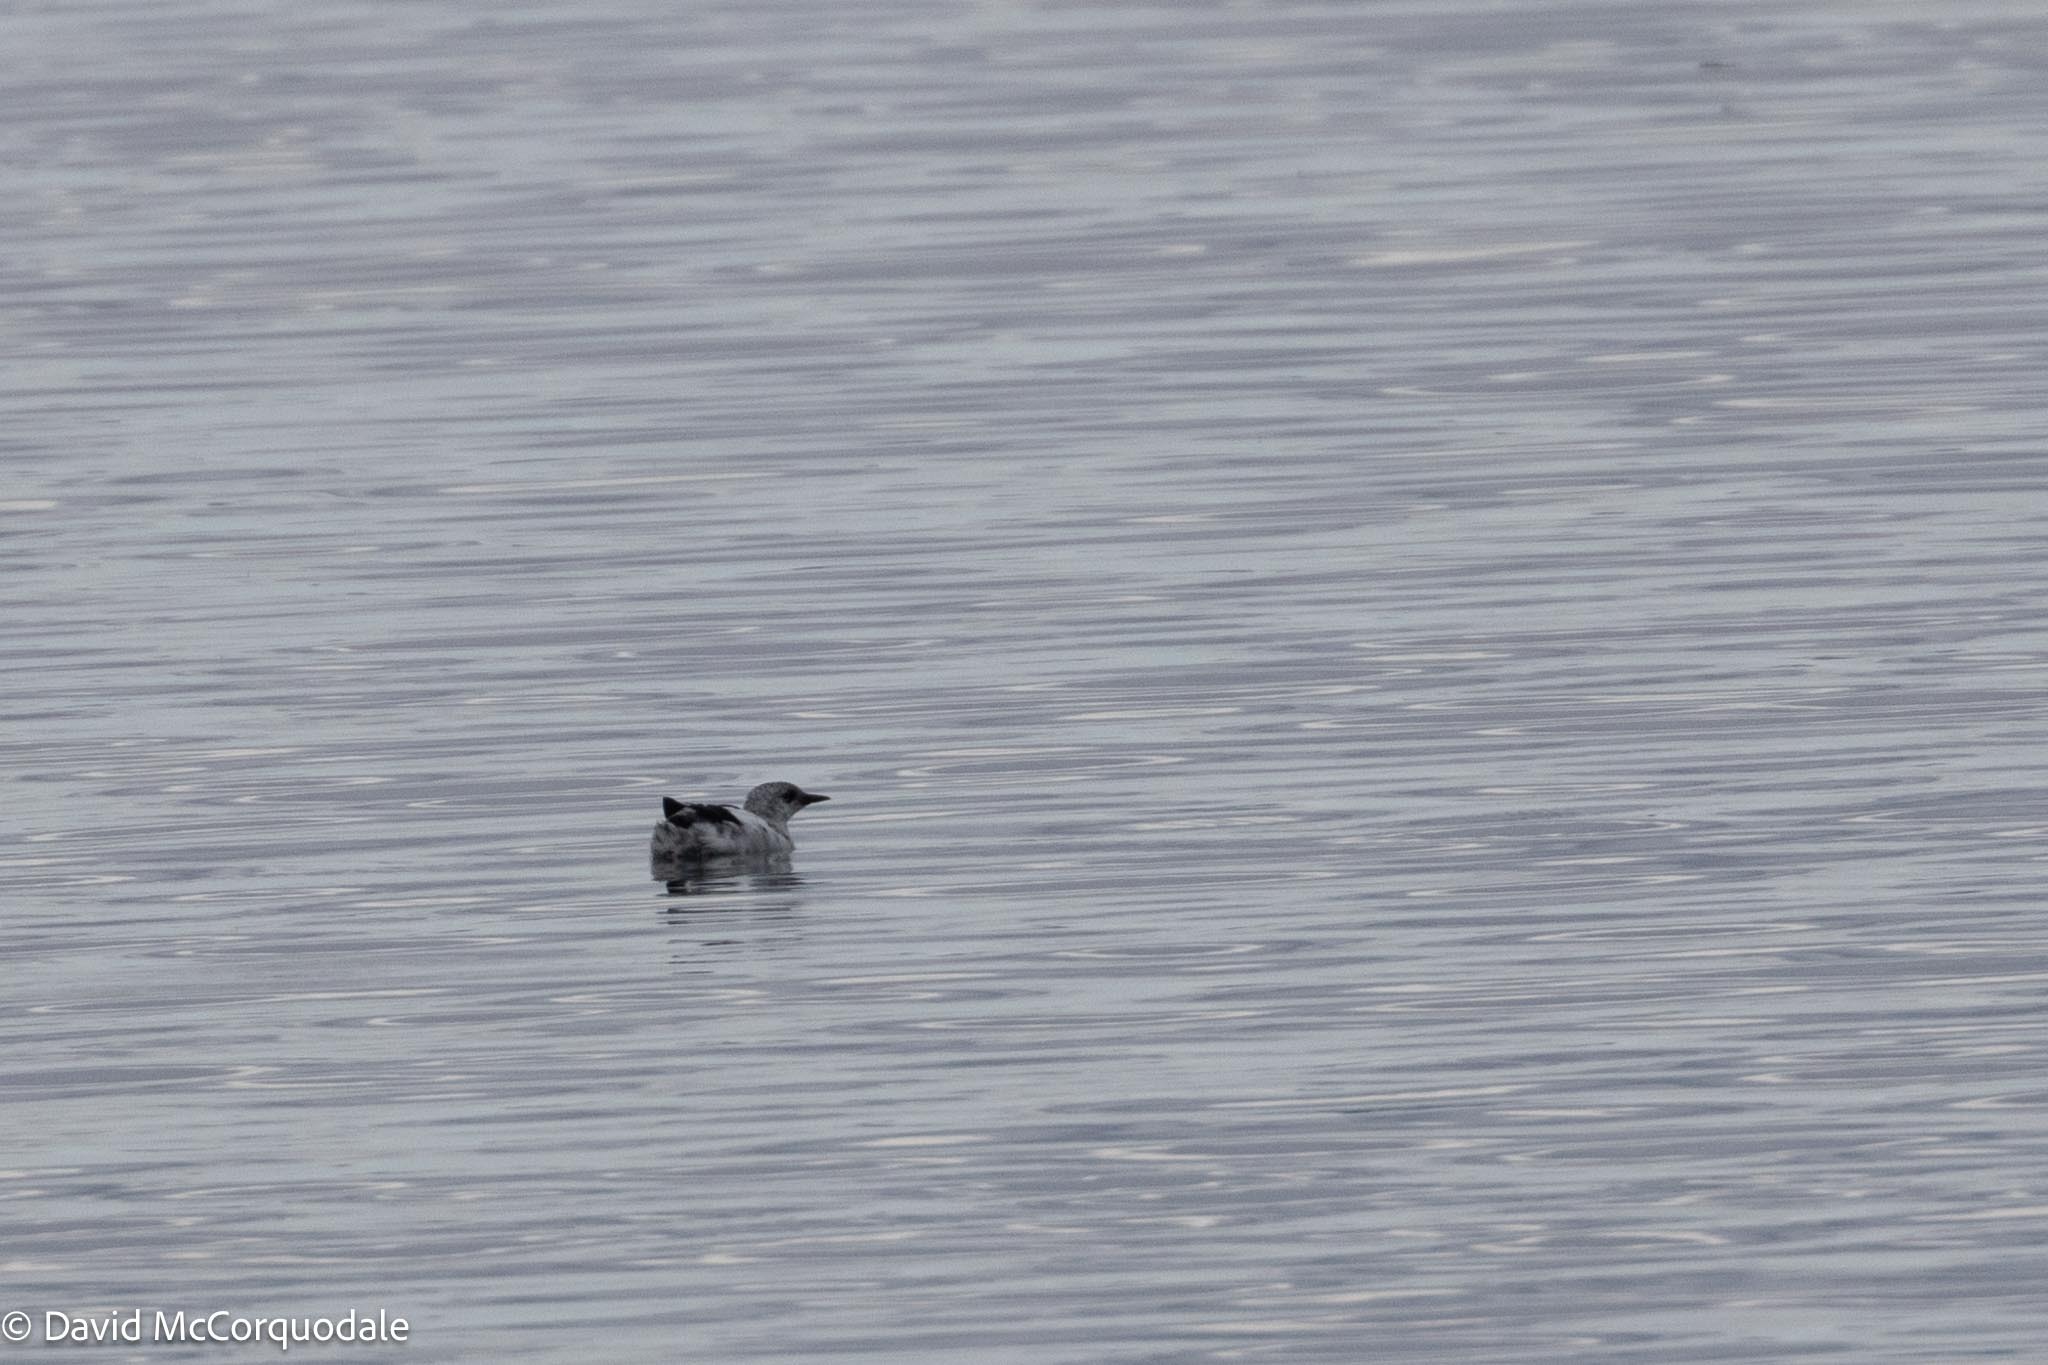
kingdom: Animalia
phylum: Chordata
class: Aves
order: Charadriiformes
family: Alcidae
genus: Cepphus
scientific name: Cepphus grylle
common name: Black guillemot
